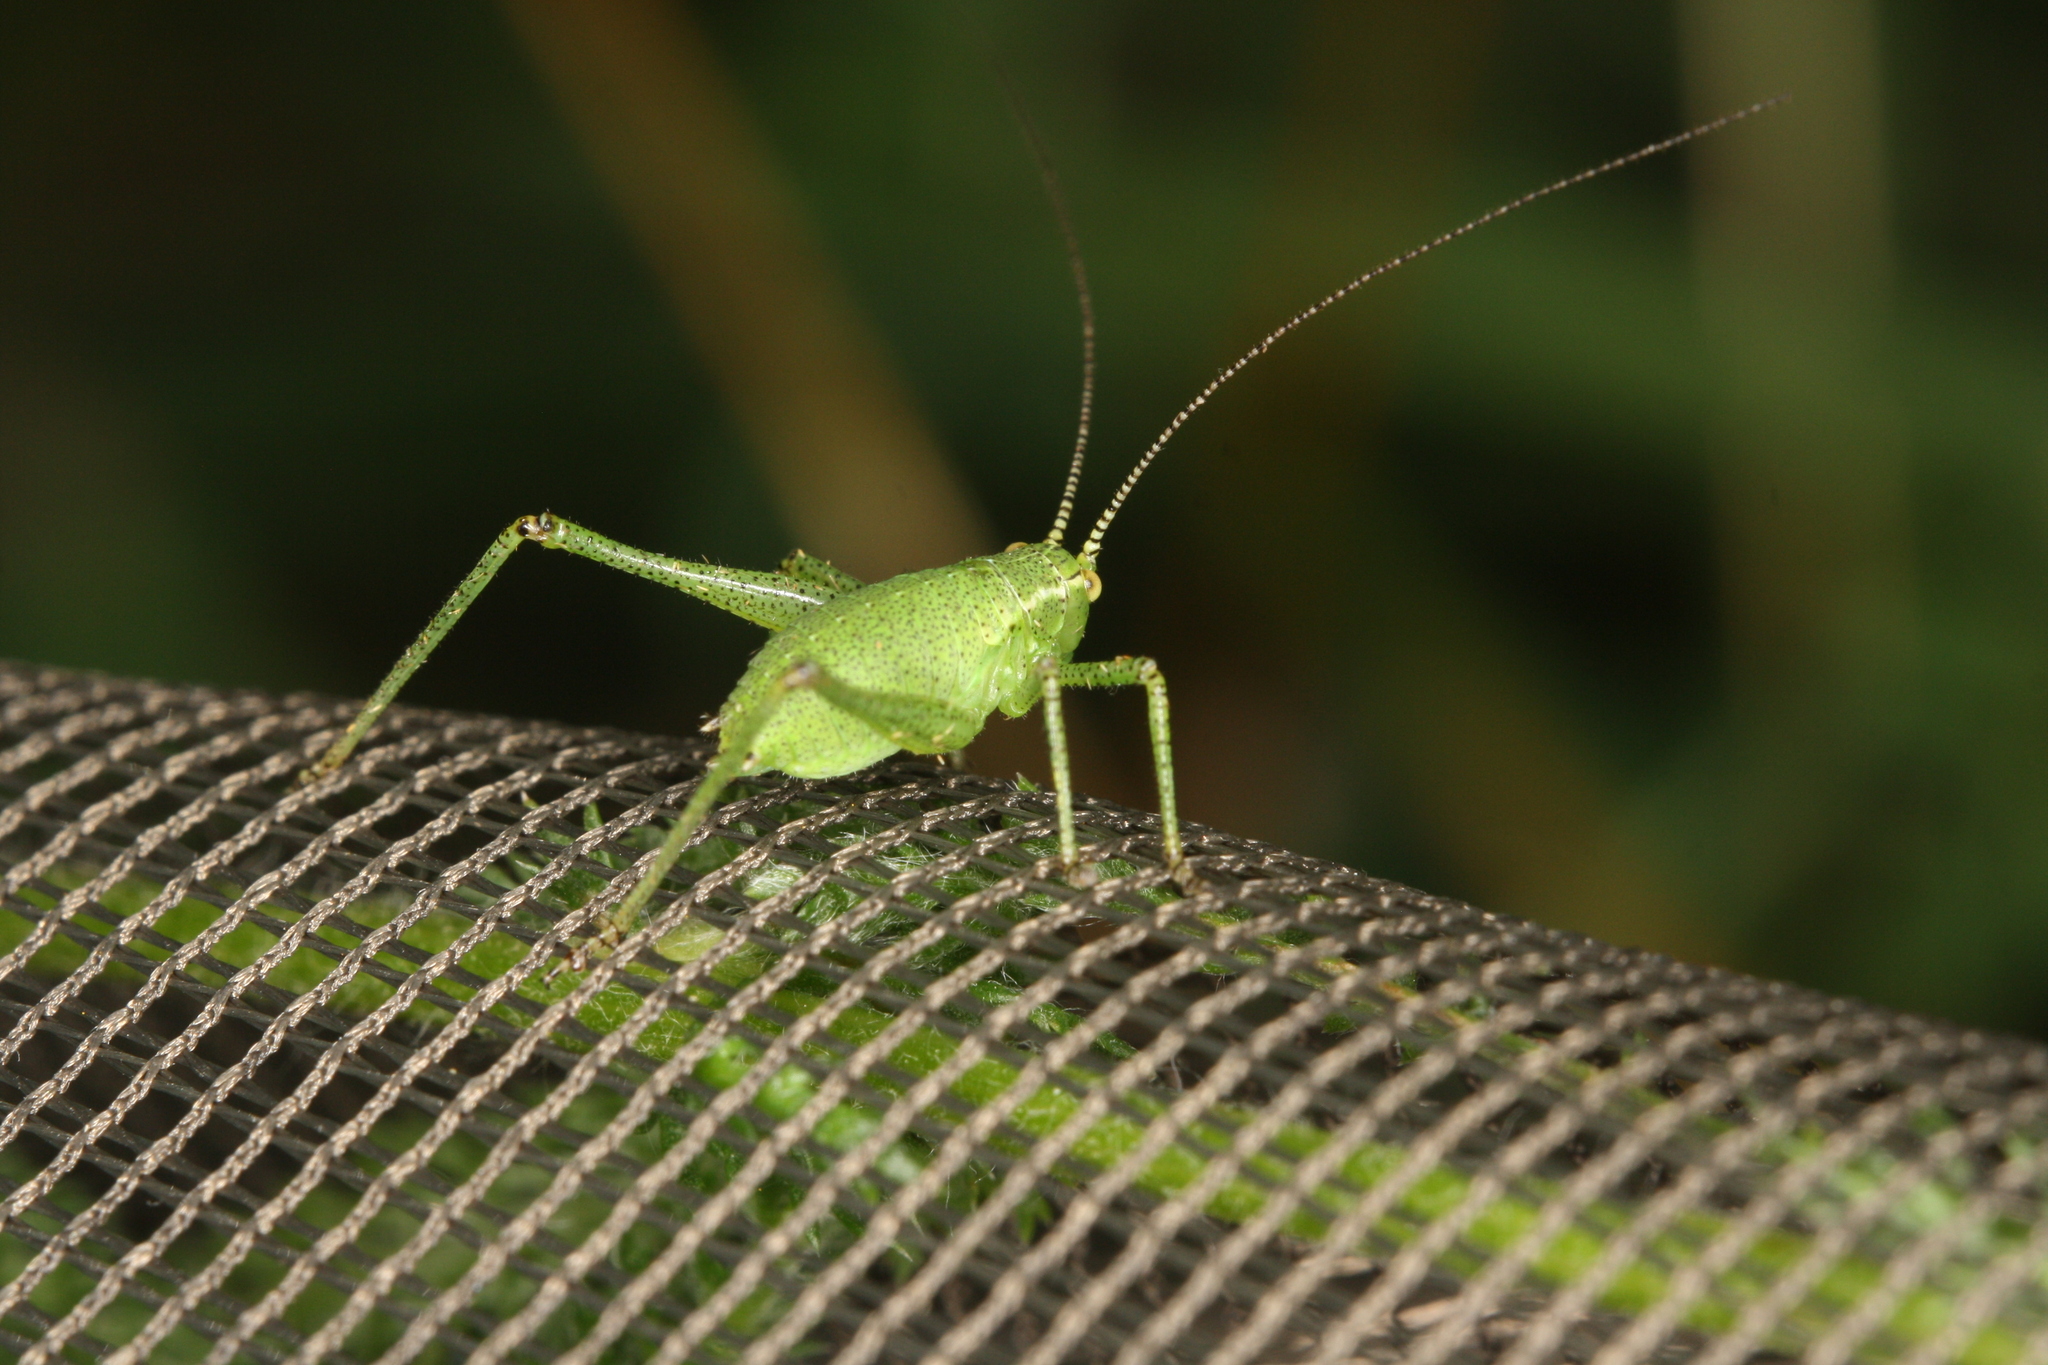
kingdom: Animalia
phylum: Arthropoda
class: Insecta
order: Orthoptera
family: Tettigoniidae
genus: Leptophyes
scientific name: Leptophyes punctatissima
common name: Speckled bush-cricket
